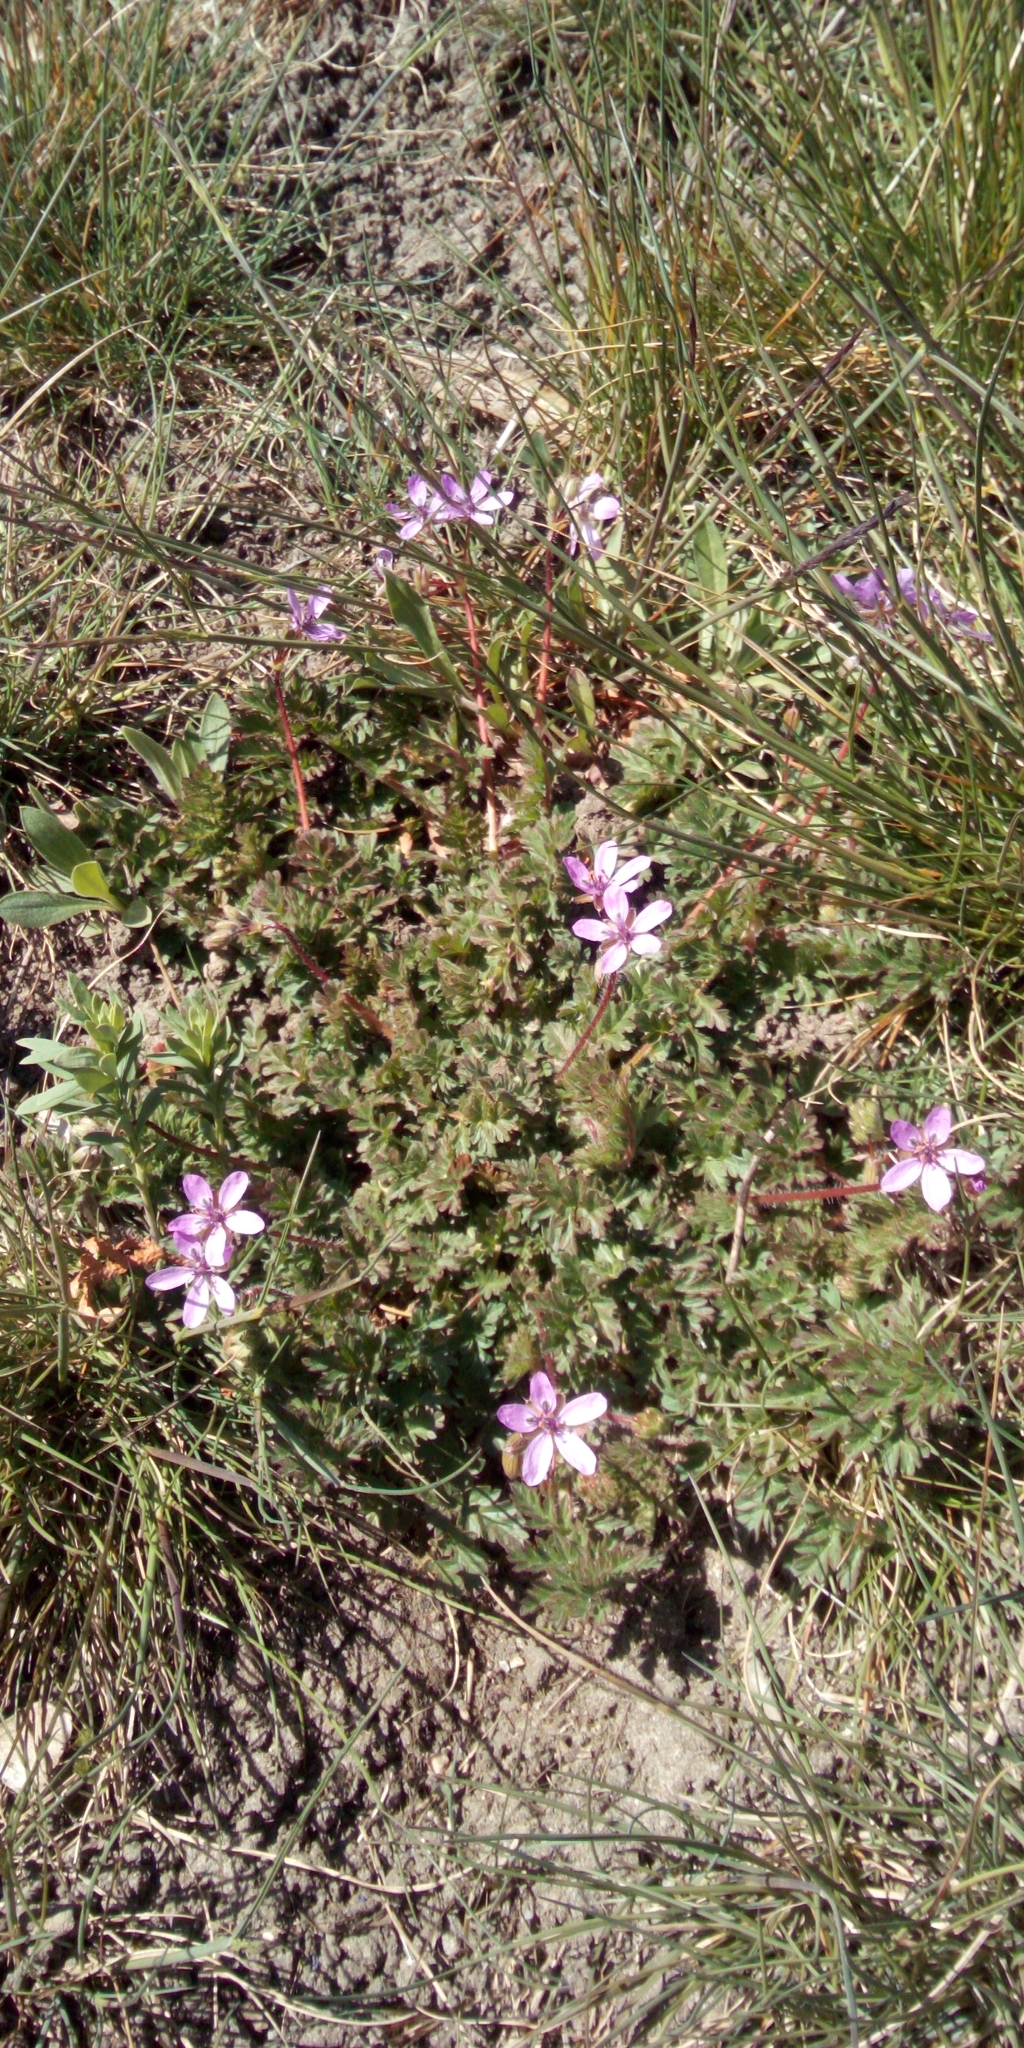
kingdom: Plantae
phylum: Tracheophyta
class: Magnoliopsida
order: Geraniales
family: Geraniaceae
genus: Erodium
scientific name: Erodium cicutarium
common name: Common stork's-bill
